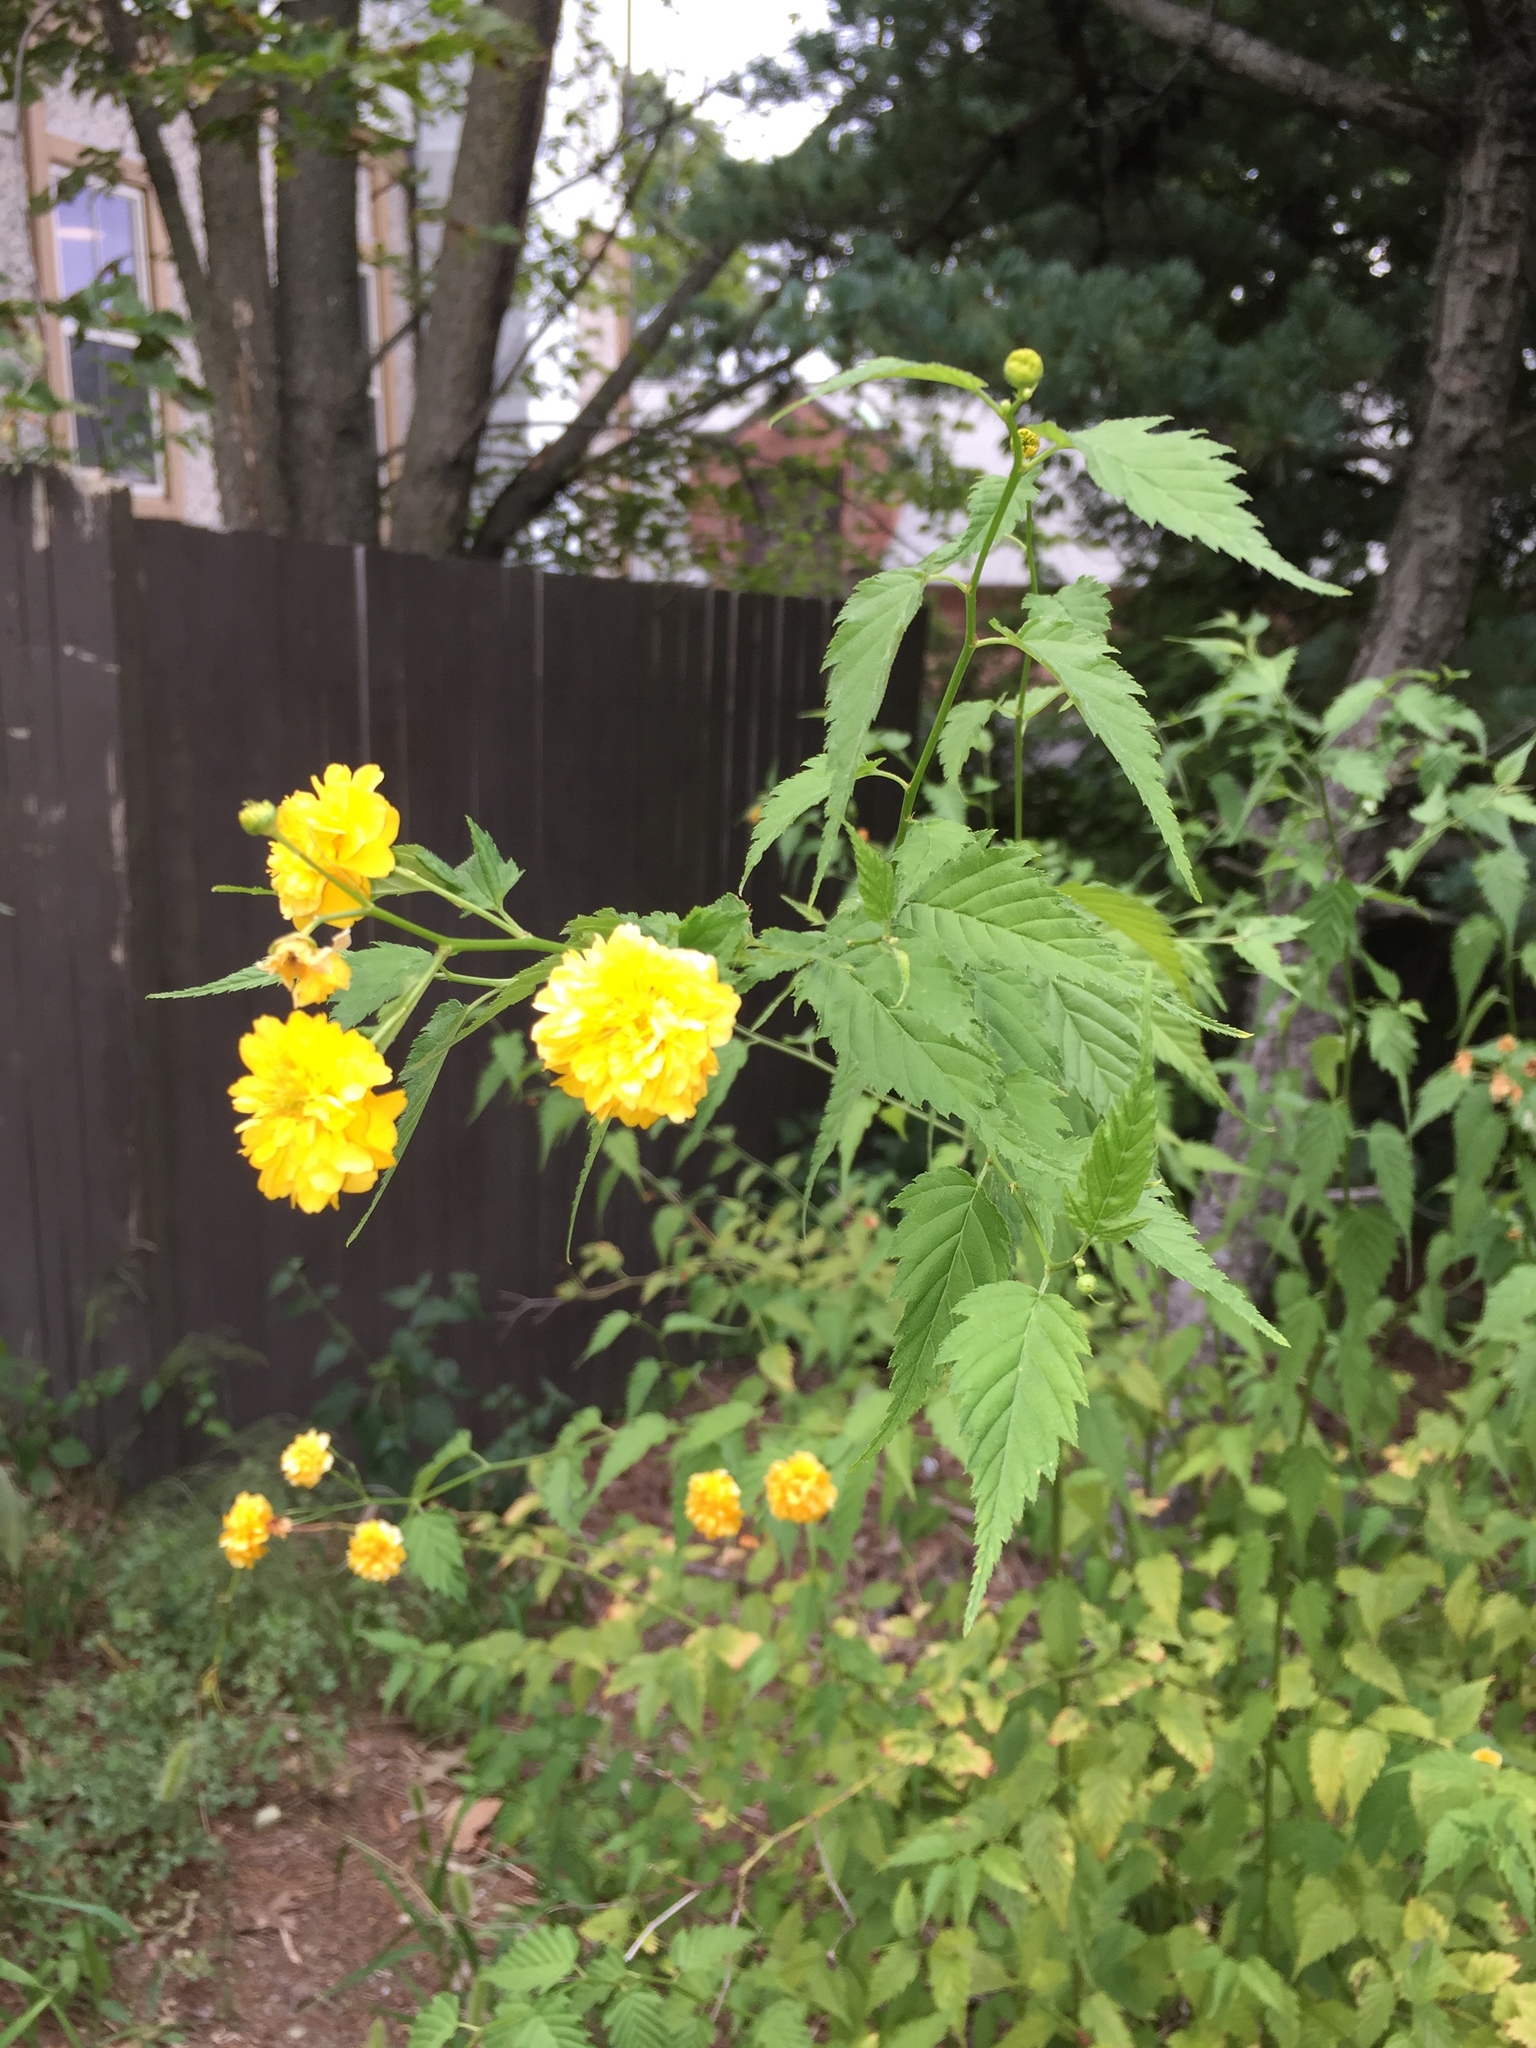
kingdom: Plantae
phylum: Tracheophyta
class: Magnoliopsida
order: Rosales
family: Rosaceae
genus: Kerria
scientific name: Kerria japonica
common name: Japanese kerria
